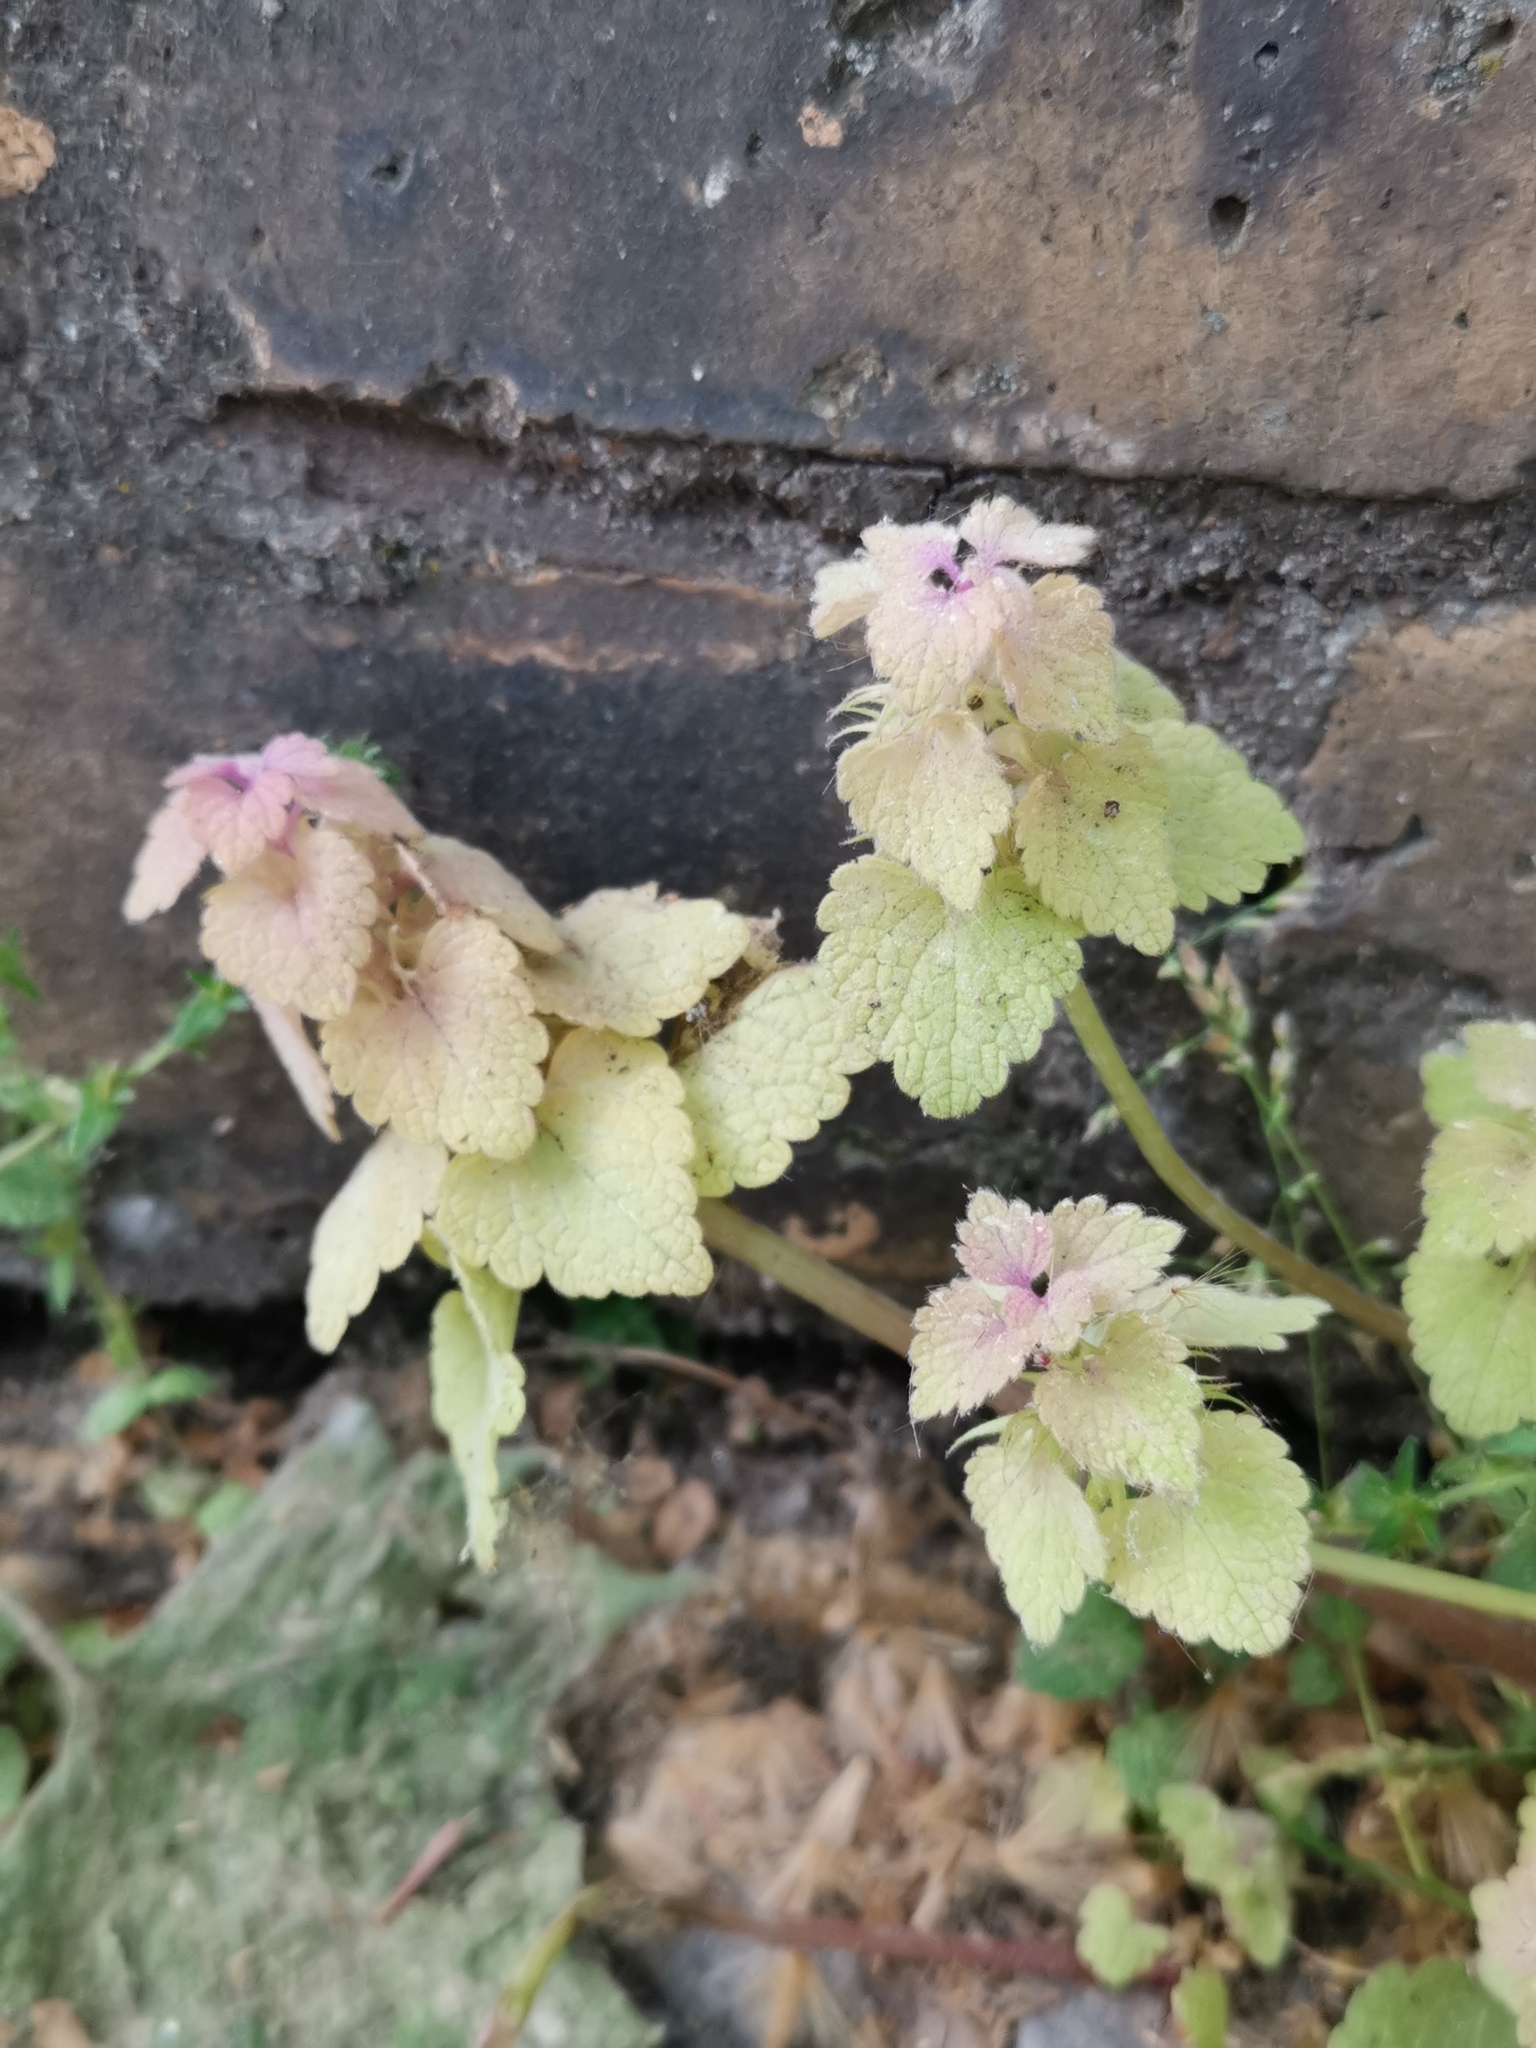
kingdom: Plantae
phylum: Tracheophyta
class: Magnoliopsida
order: Lamiales
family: Lamiaceae
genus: Lamium
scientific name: Lamium purpureum
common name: Red dead-nettle
